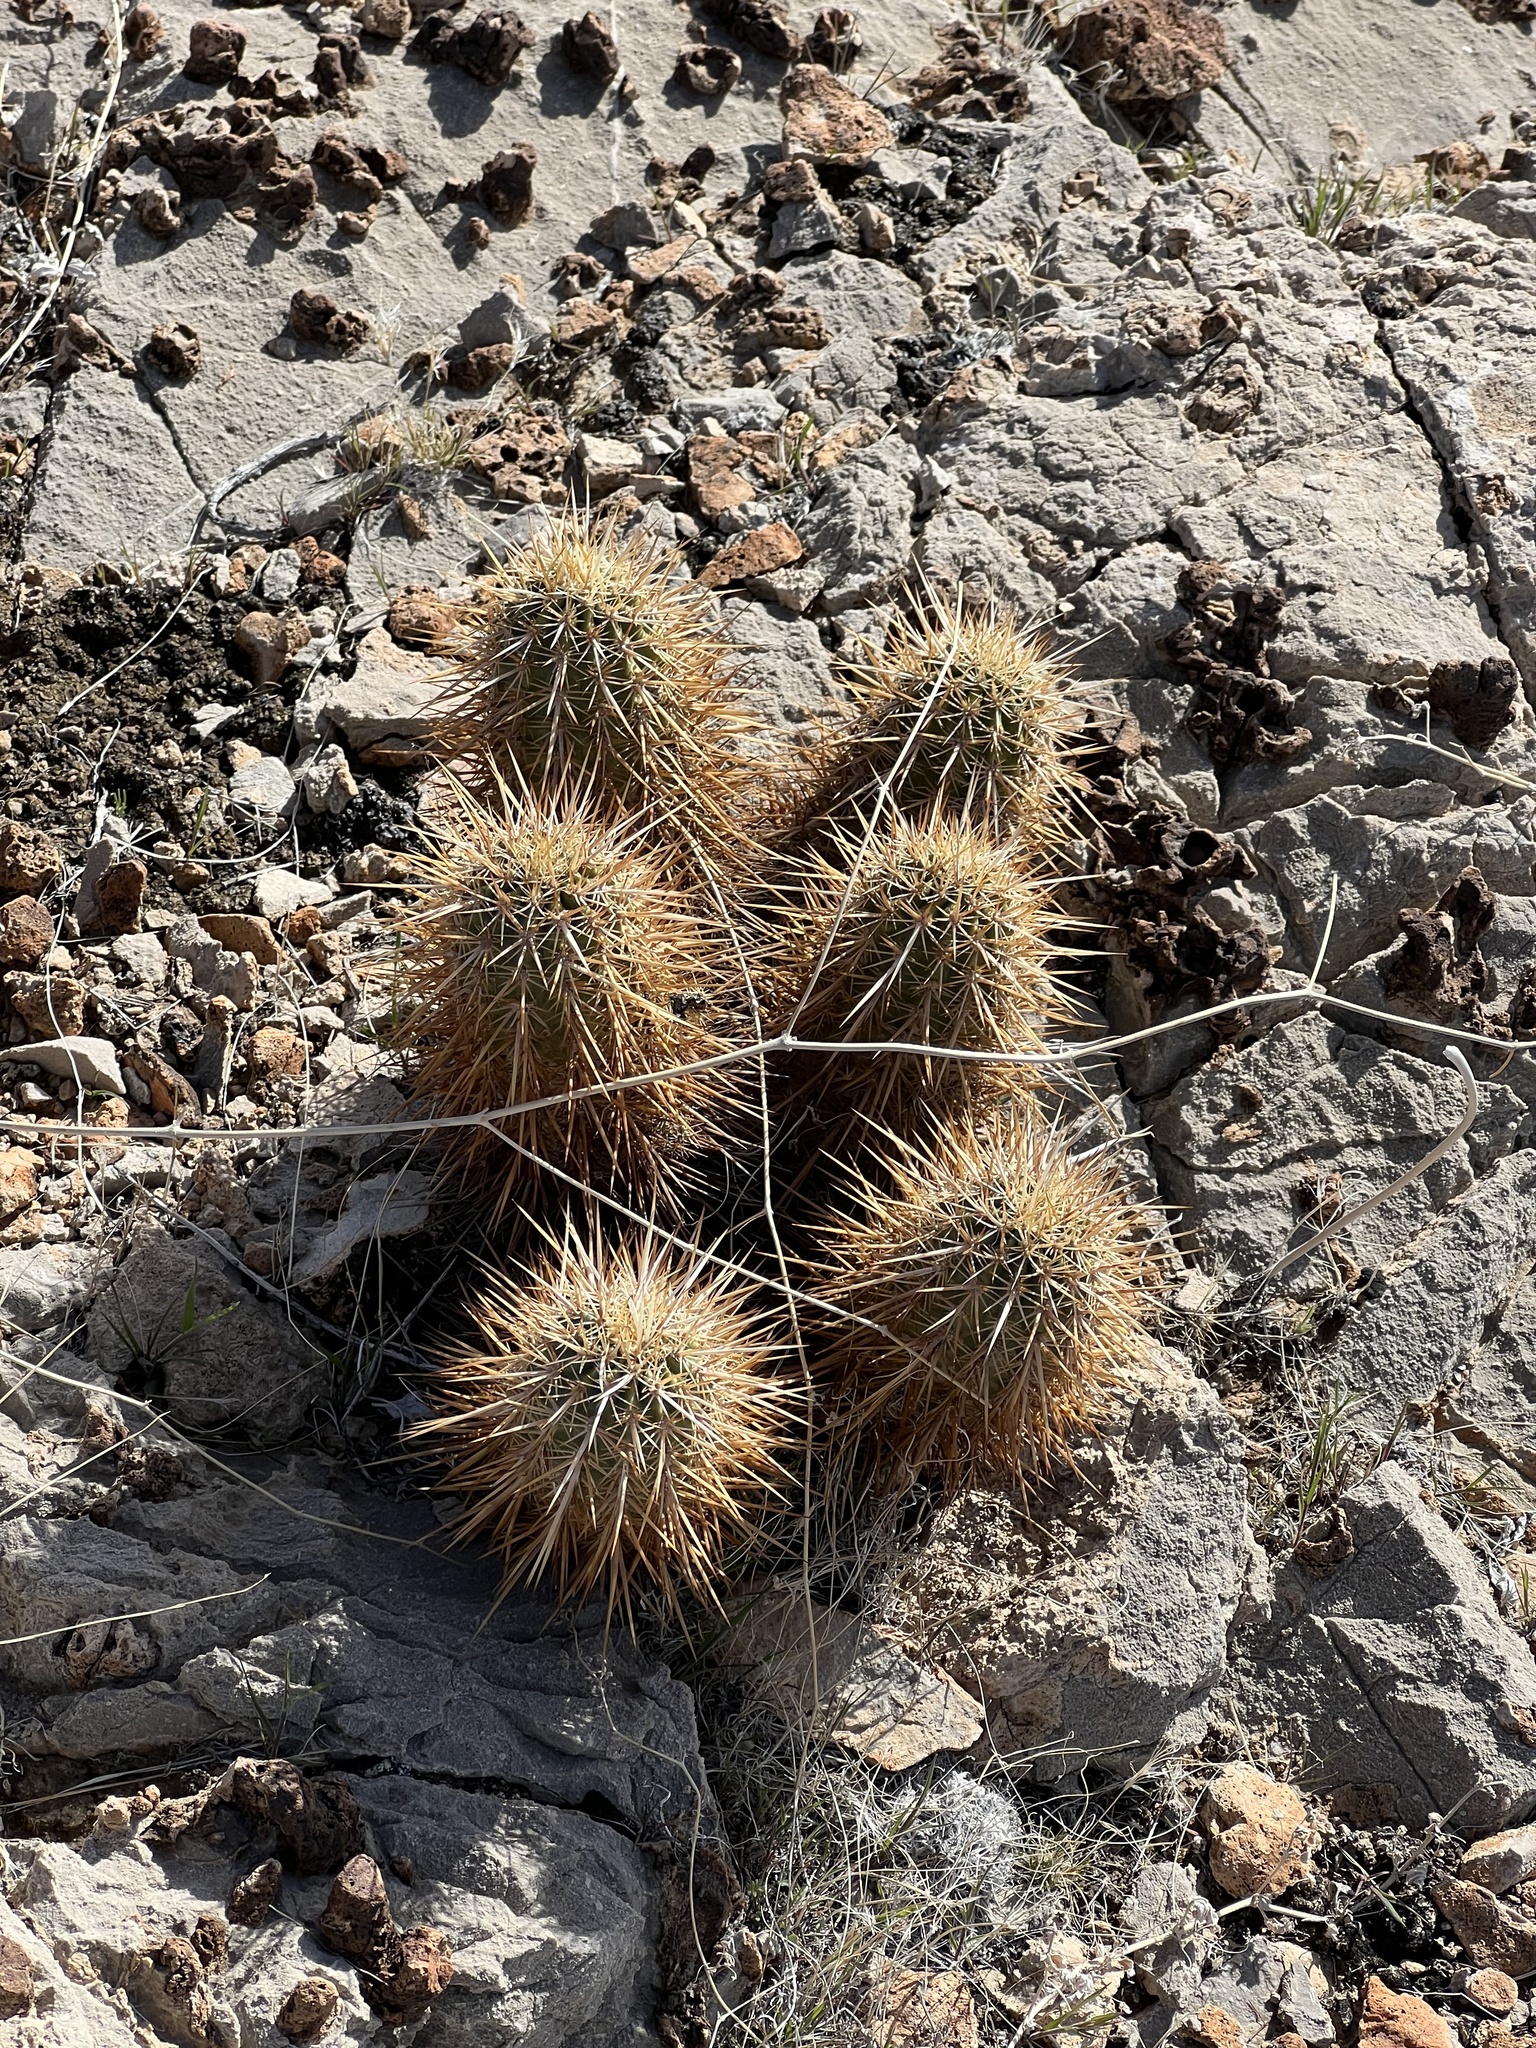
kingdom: Plantae
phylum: Tracheophyta
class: Magnoliopsida
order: Caryophyllales
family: Cactaceae
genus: Echinocereus
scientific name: Echinocereus engelmannii
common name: Engelmann's hedgehog cactus
